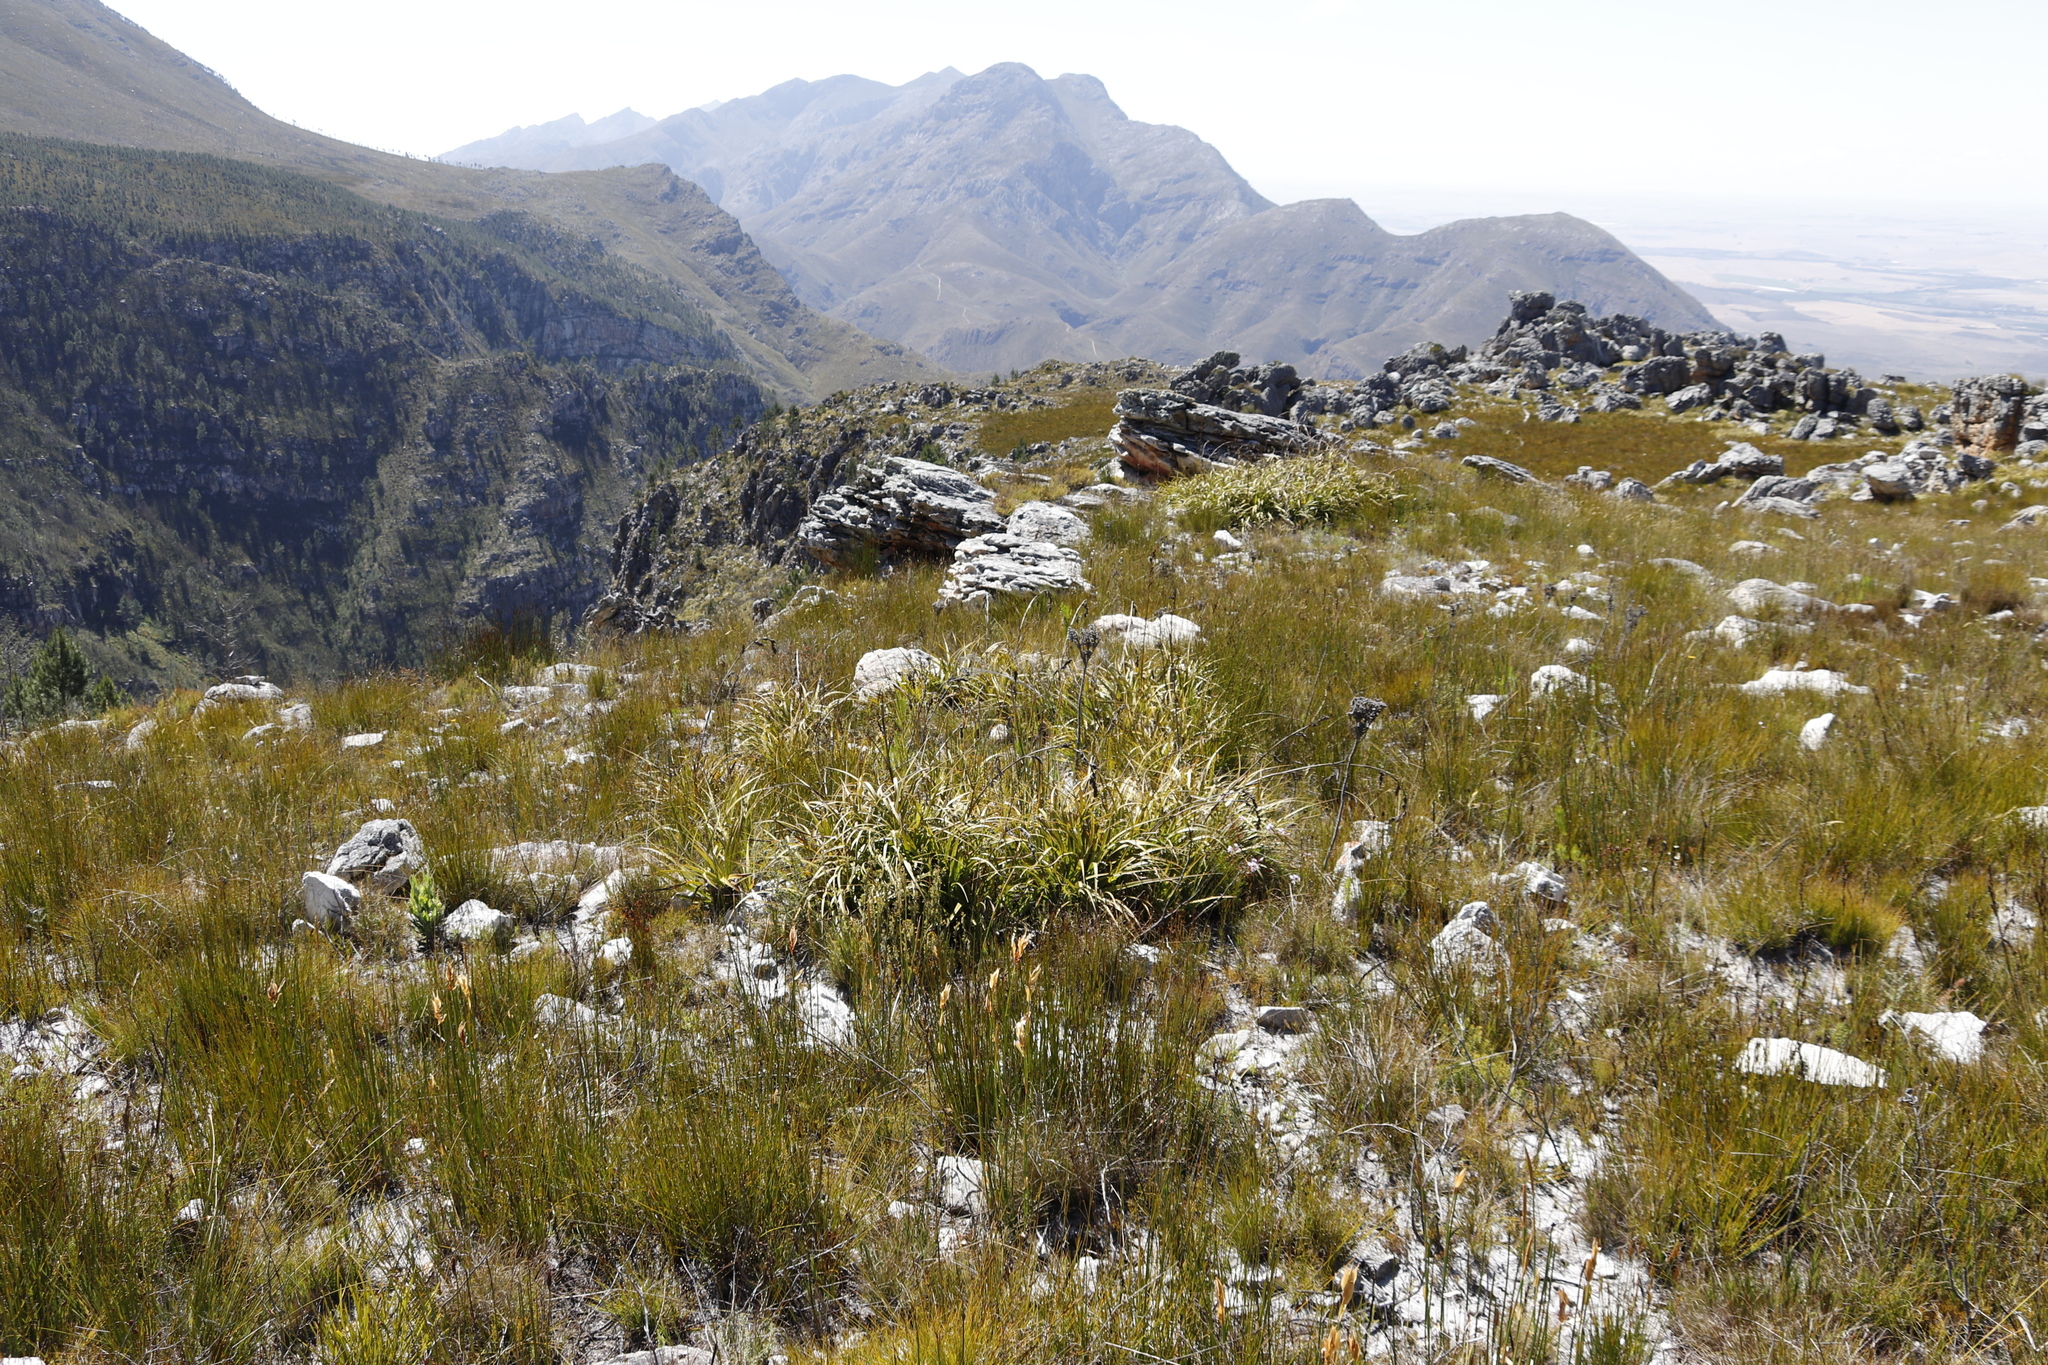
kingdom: Plantae
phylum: Tracheophyta
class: Liliopsida
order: Poales
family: Cyperaceae
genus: Tetraria
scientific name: Tetraria thermalis
